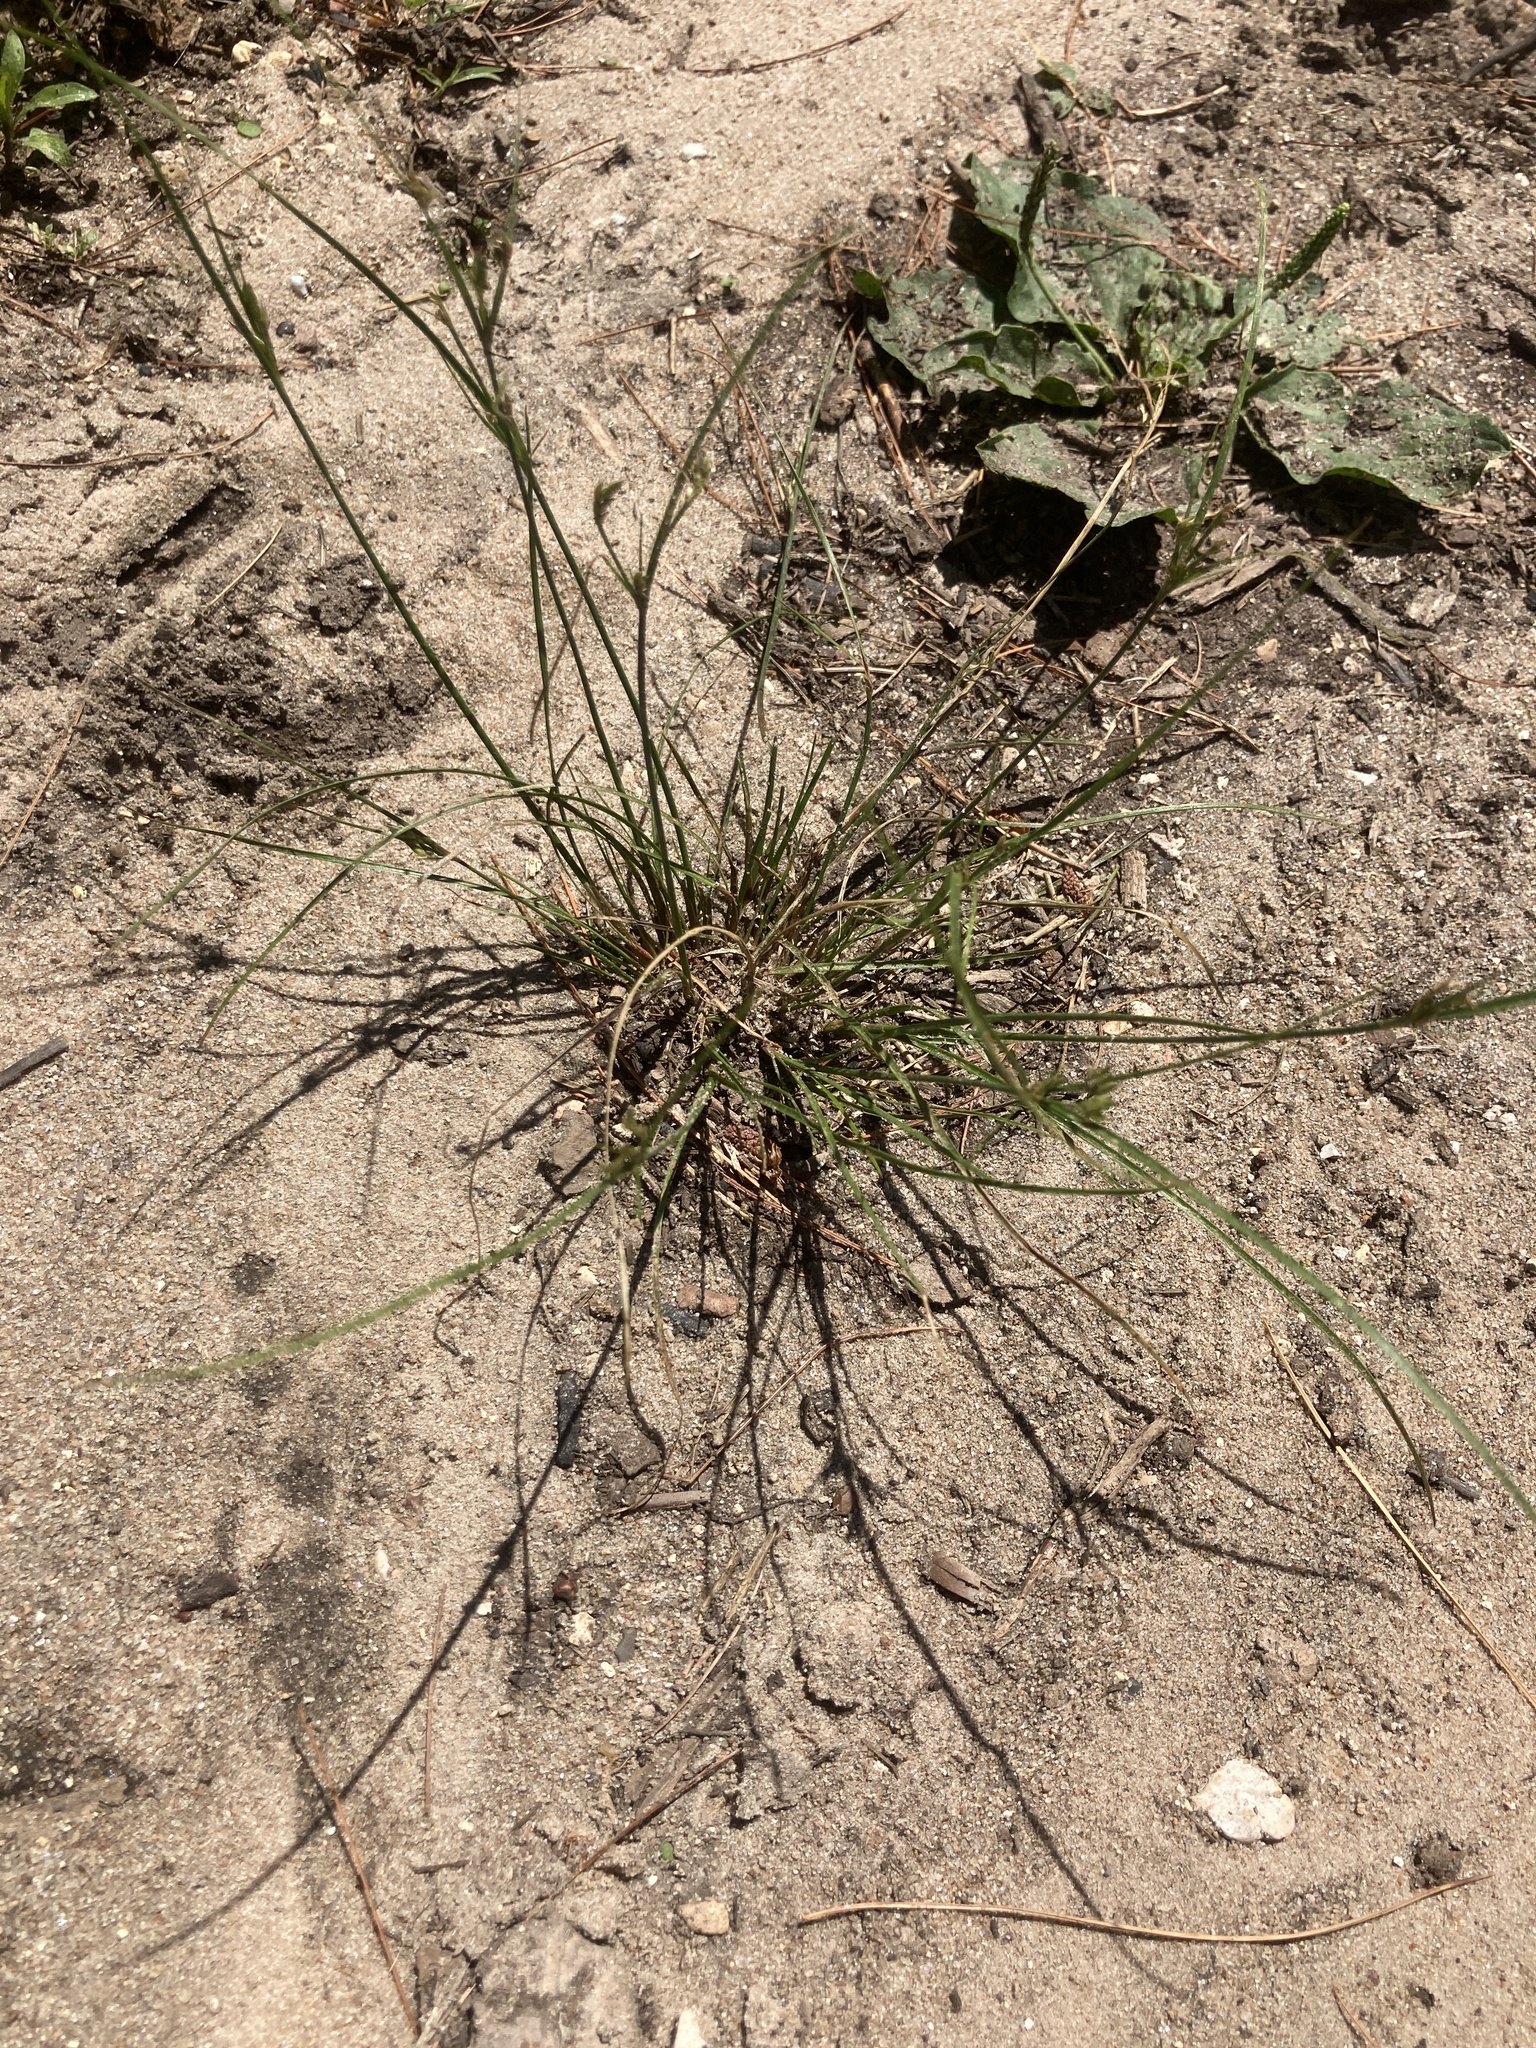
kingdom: Plantae
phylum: Tracheophyta
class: Liliopsida
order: Poales
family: Juncaceae
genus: Juncus
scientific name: Juncus tenuis
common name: Slender rush
